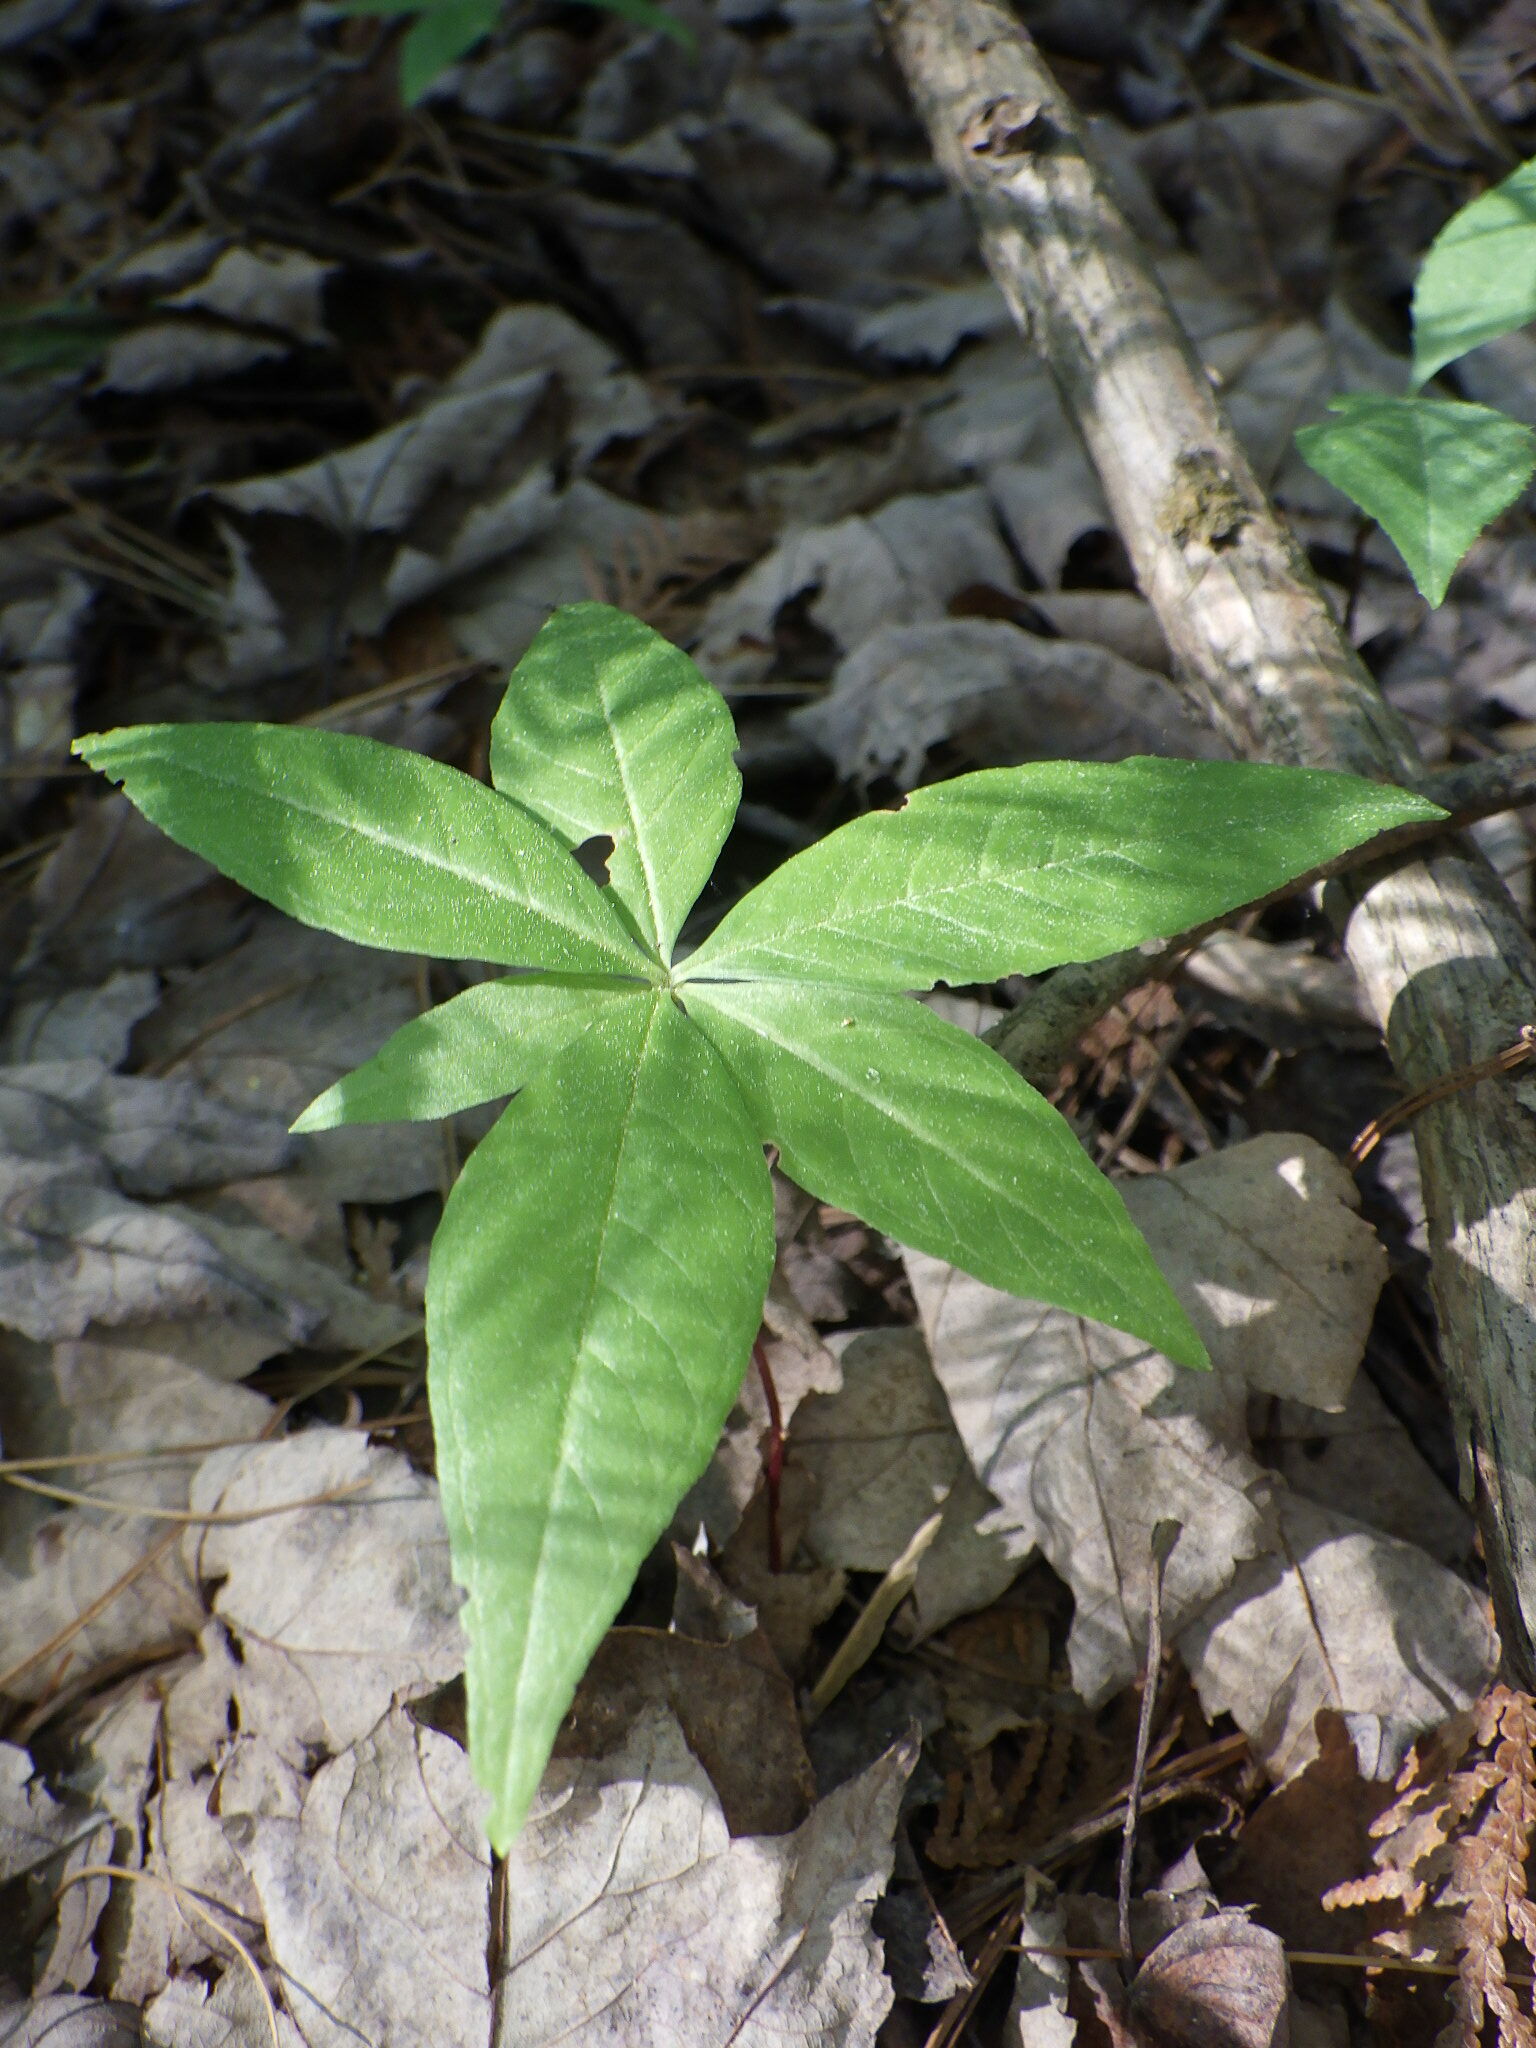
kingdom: Plantae
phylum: Tracheophyta
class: Magnoliopsida
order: Ericales
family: Primulaceae
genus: Lysimachia
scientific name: Lysimachia borealis
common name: American starflower
